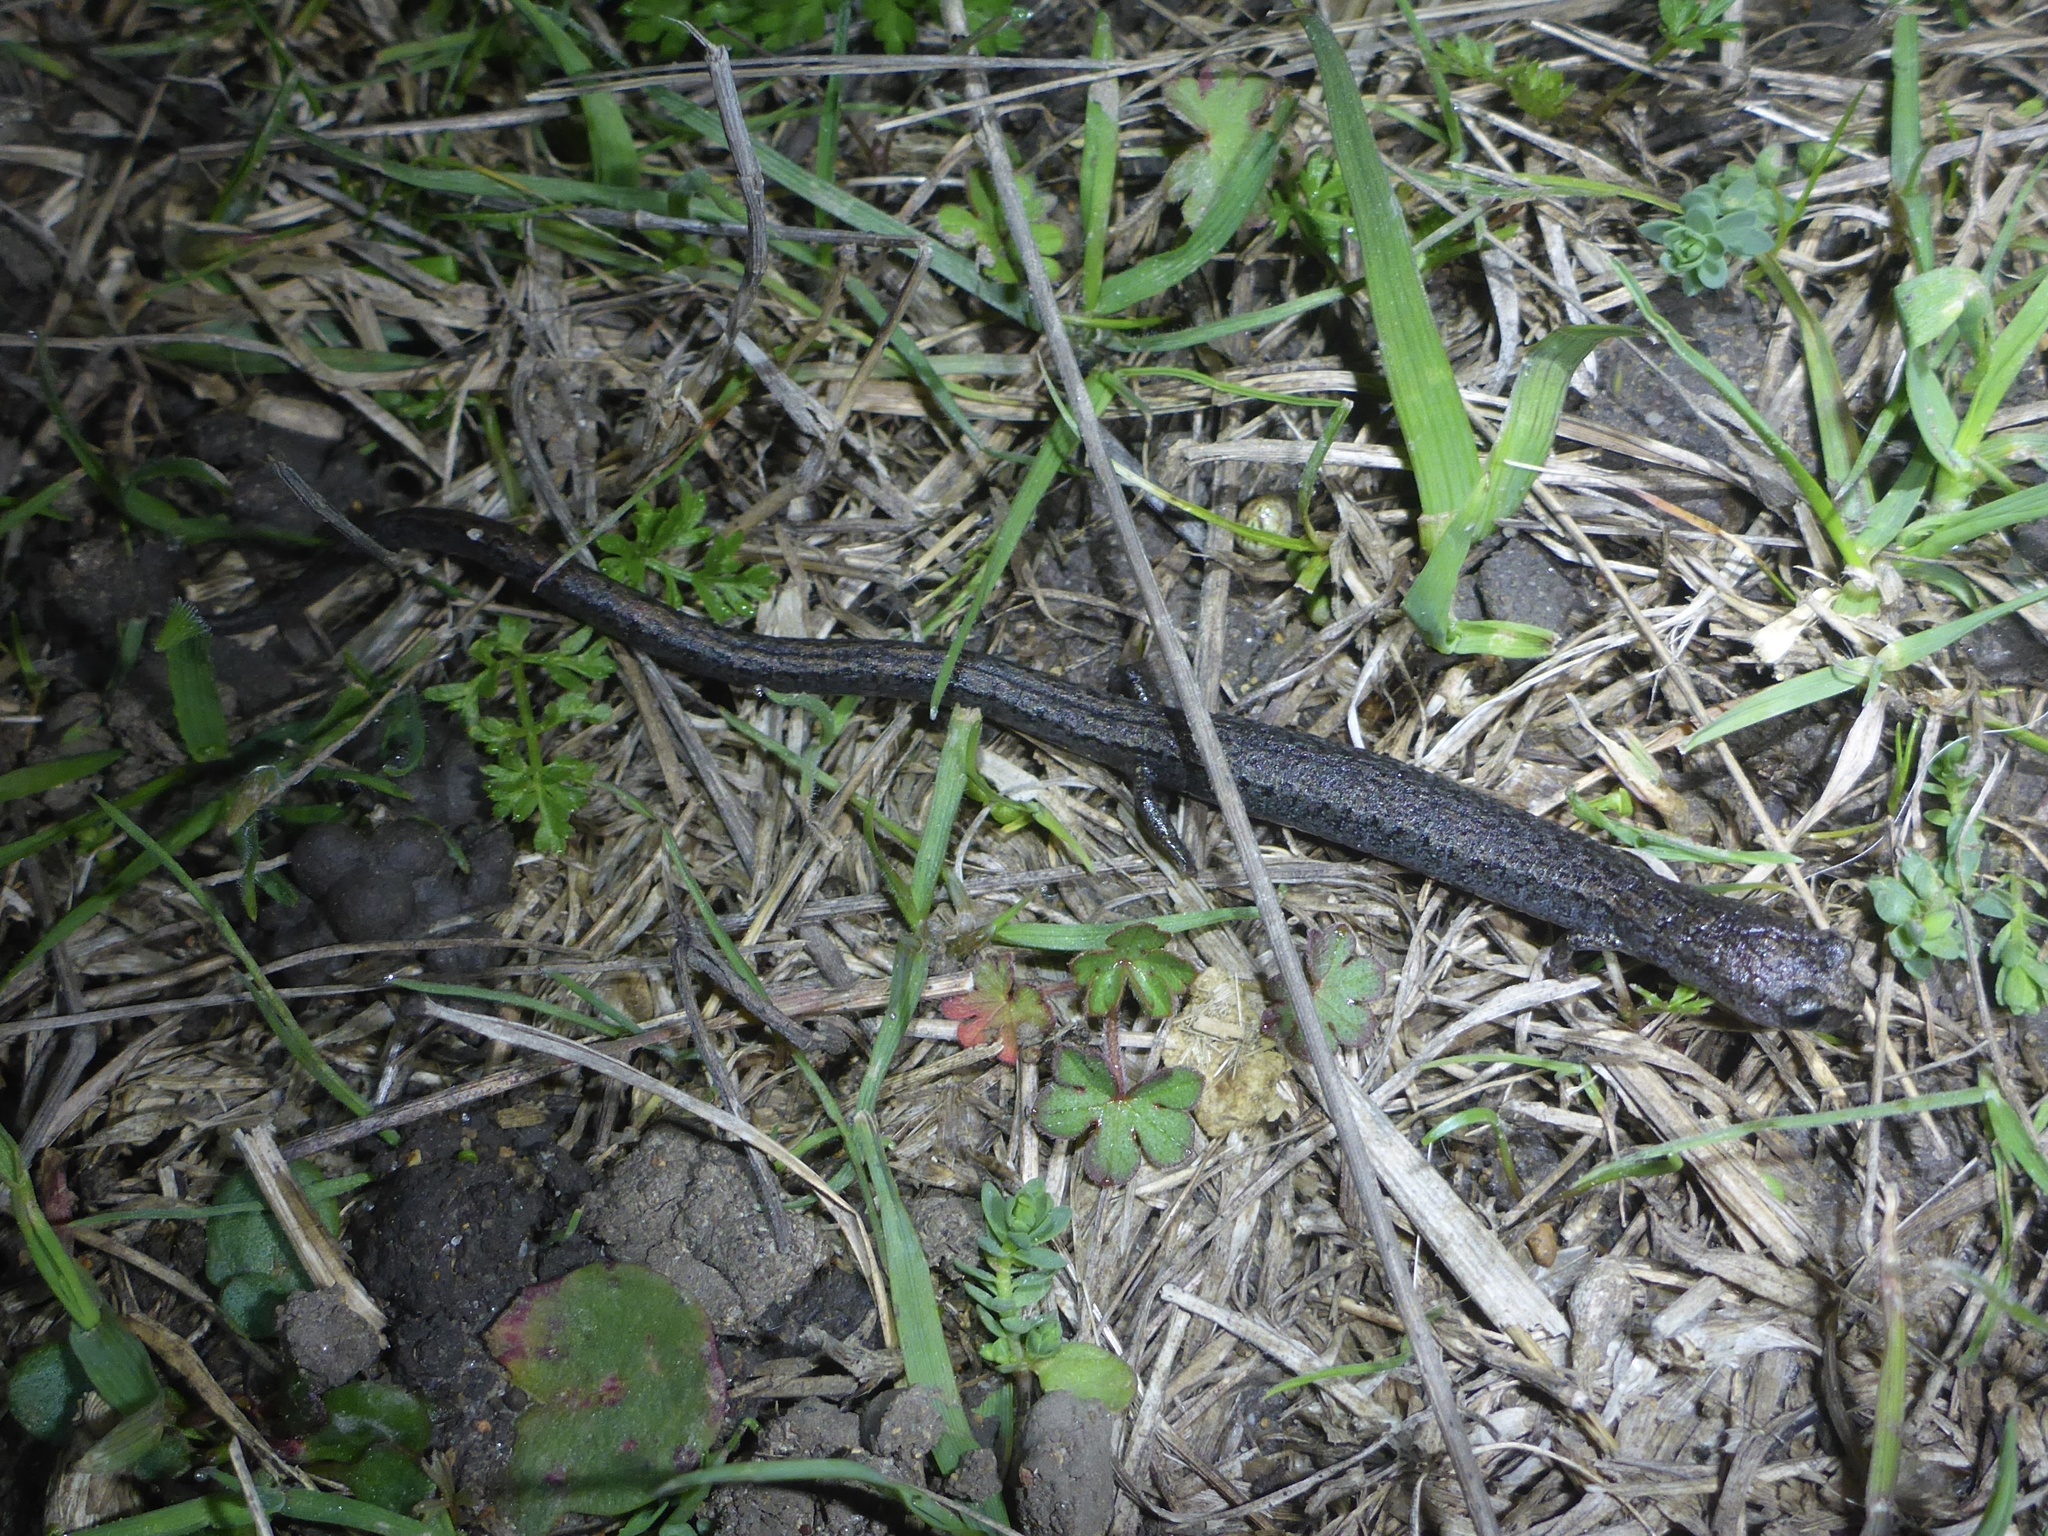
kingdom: Animalia
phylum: Chordata
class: Amphibia
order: Caudata
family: Plethodontidae
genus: Batrachoseps
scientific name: Batrachoseps attenuatus
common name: California slender salamander
